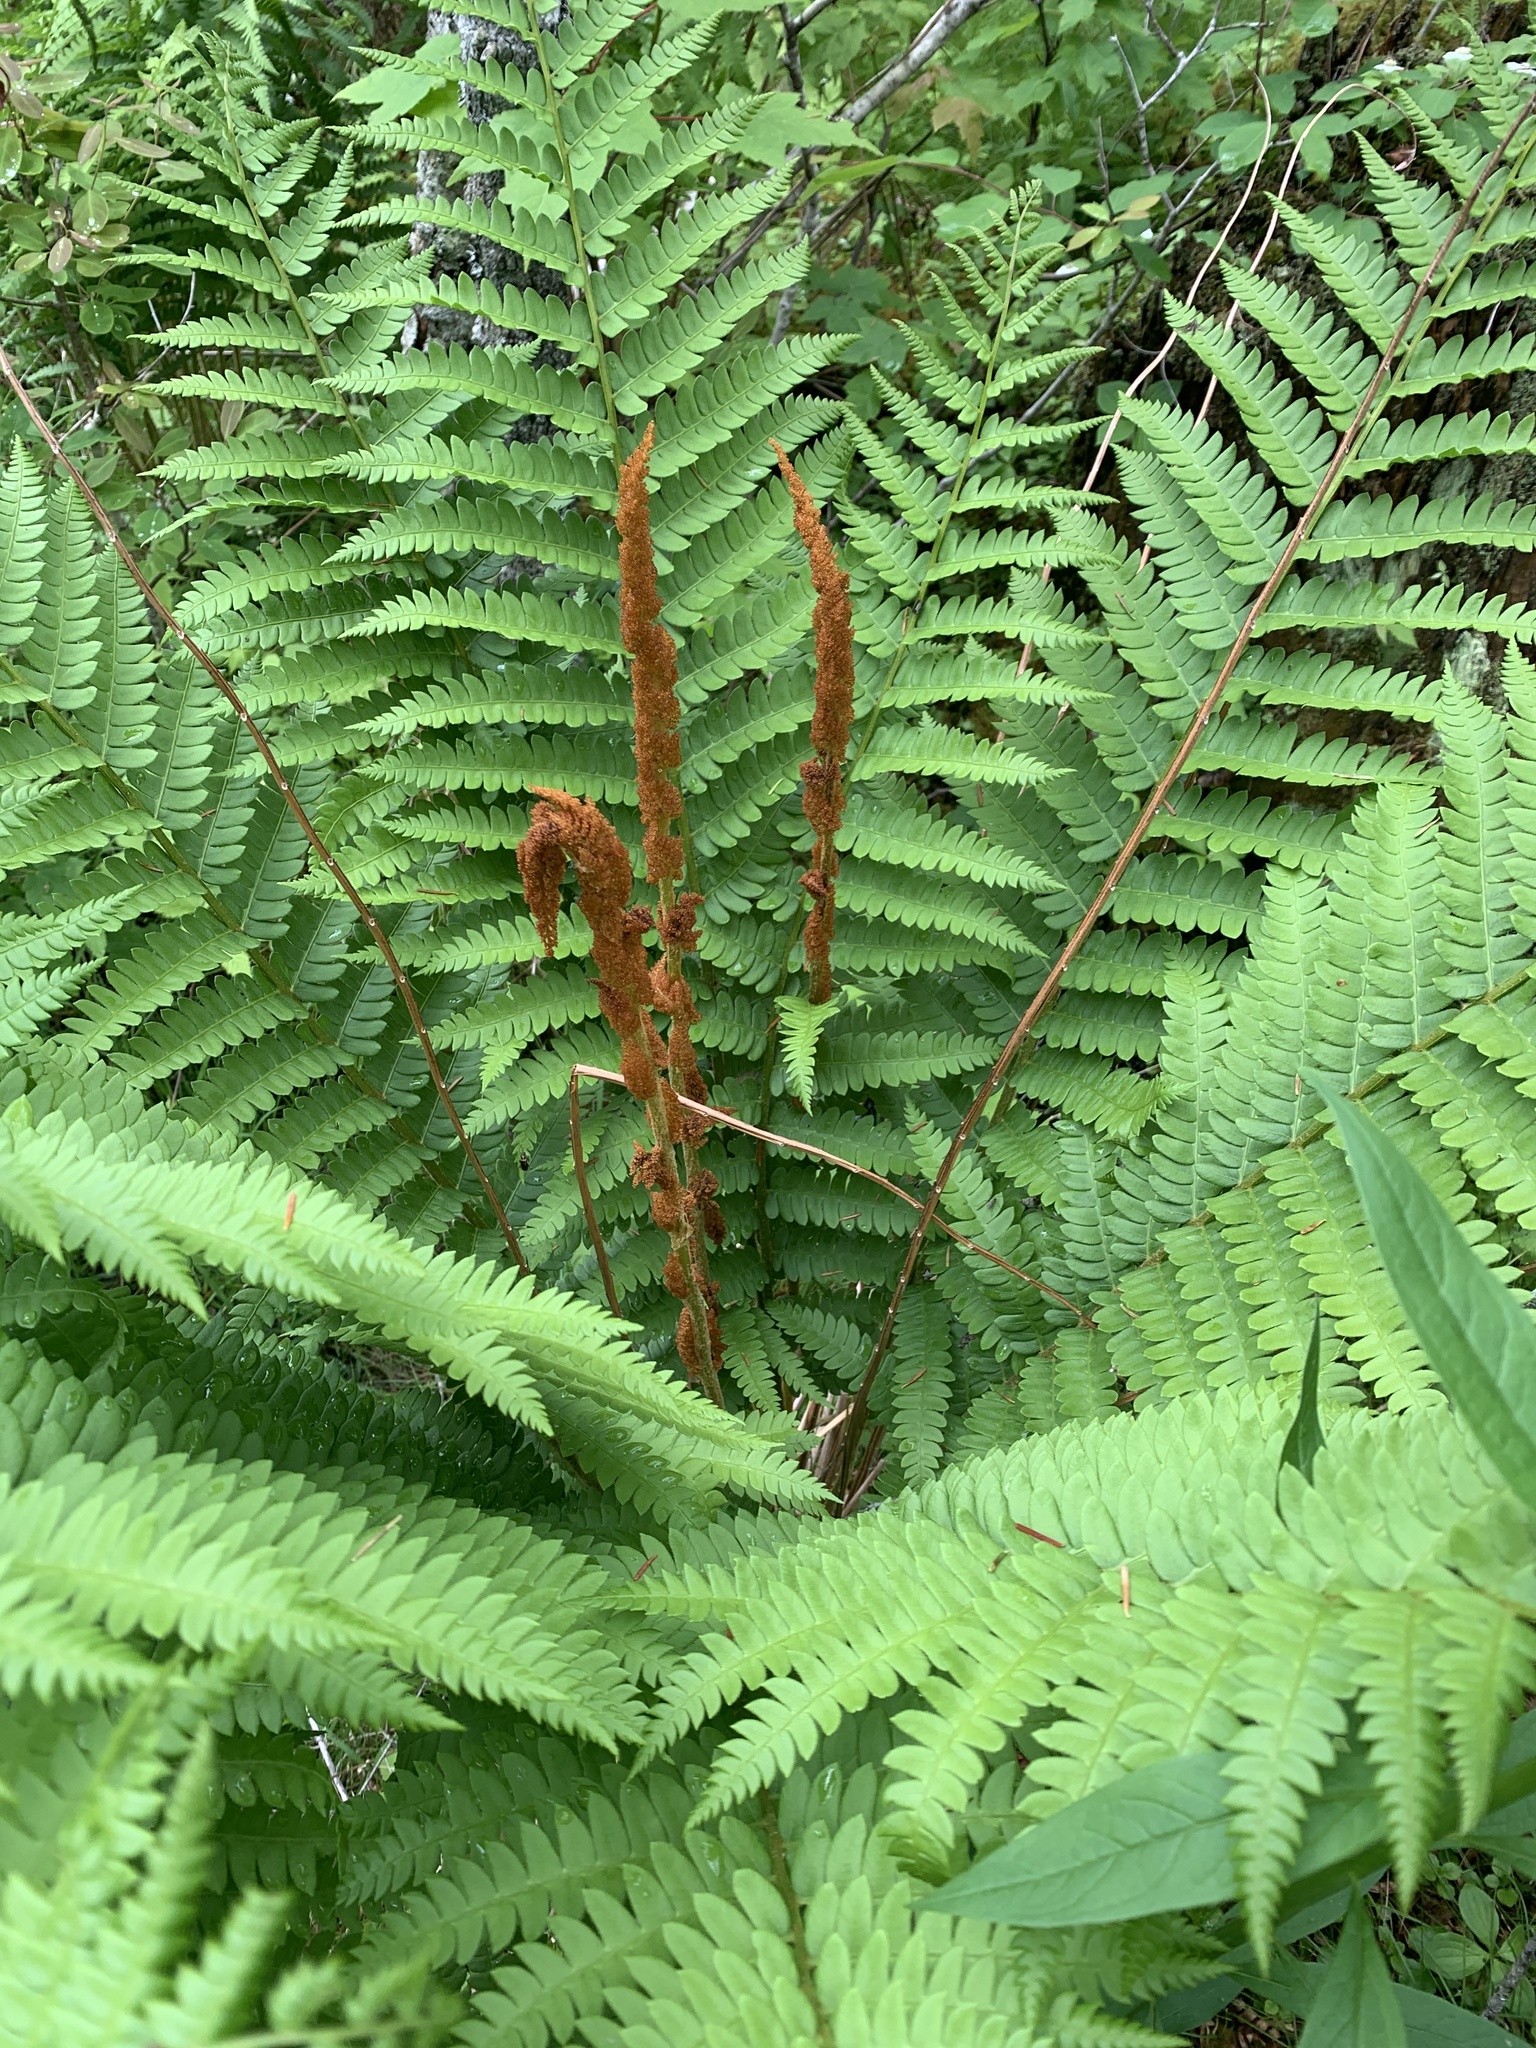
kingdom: Plantae
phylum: Tracheophyta
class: Polypodiopsida
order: Osmundales
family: Osmundaceae
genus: Osmundastrum
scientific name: Osmundastrum cinnamomeum
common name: Cinnamon fern
